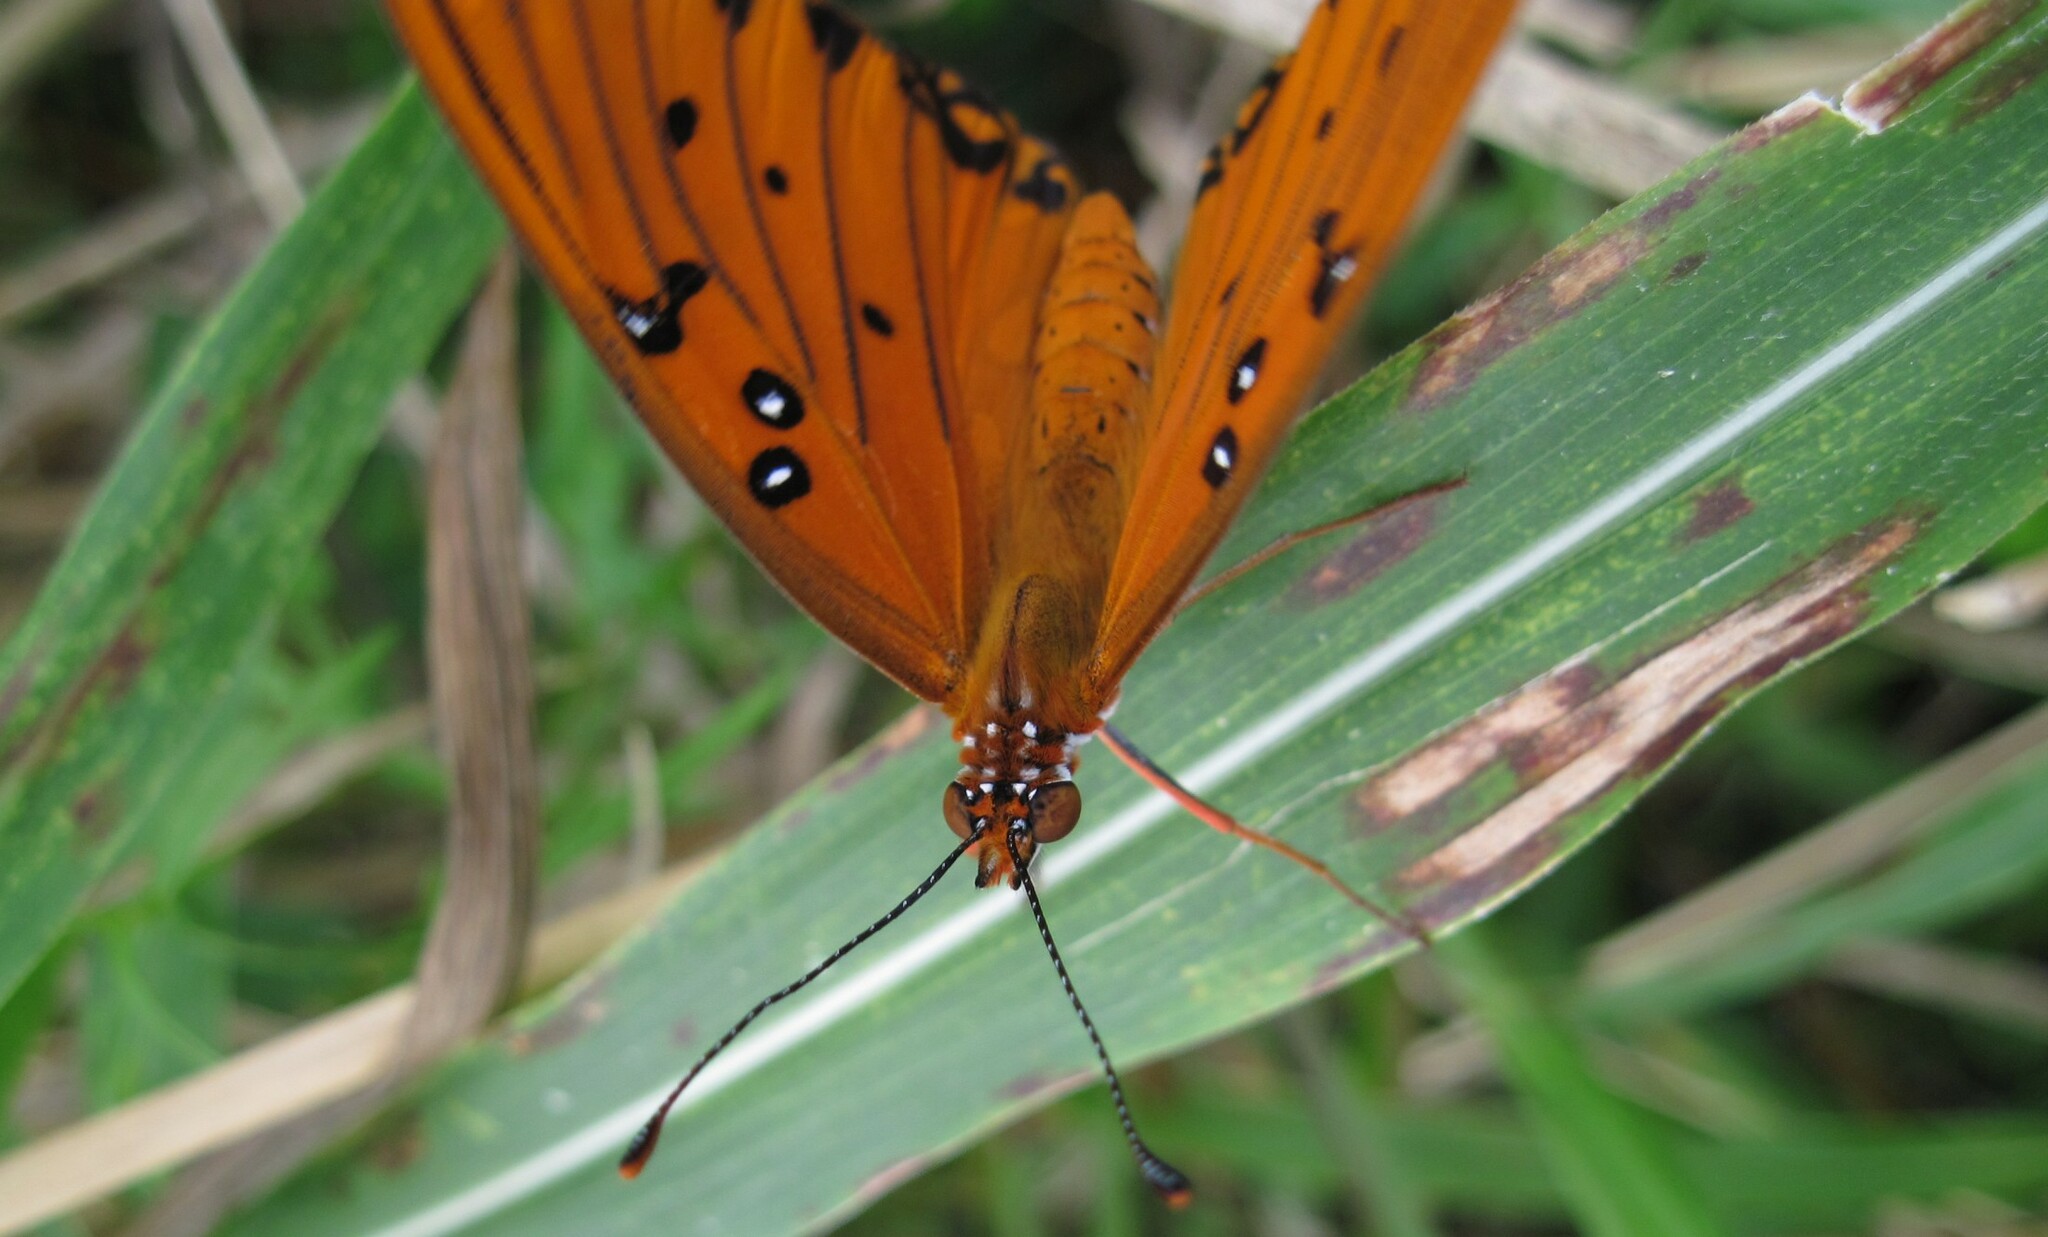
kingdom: Animalia
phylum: Arthropoda
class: Insecta
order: Lepidoptera
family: Nymphalidae
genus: Dione
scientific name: Dione vanillae
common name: Gulf fritillary
